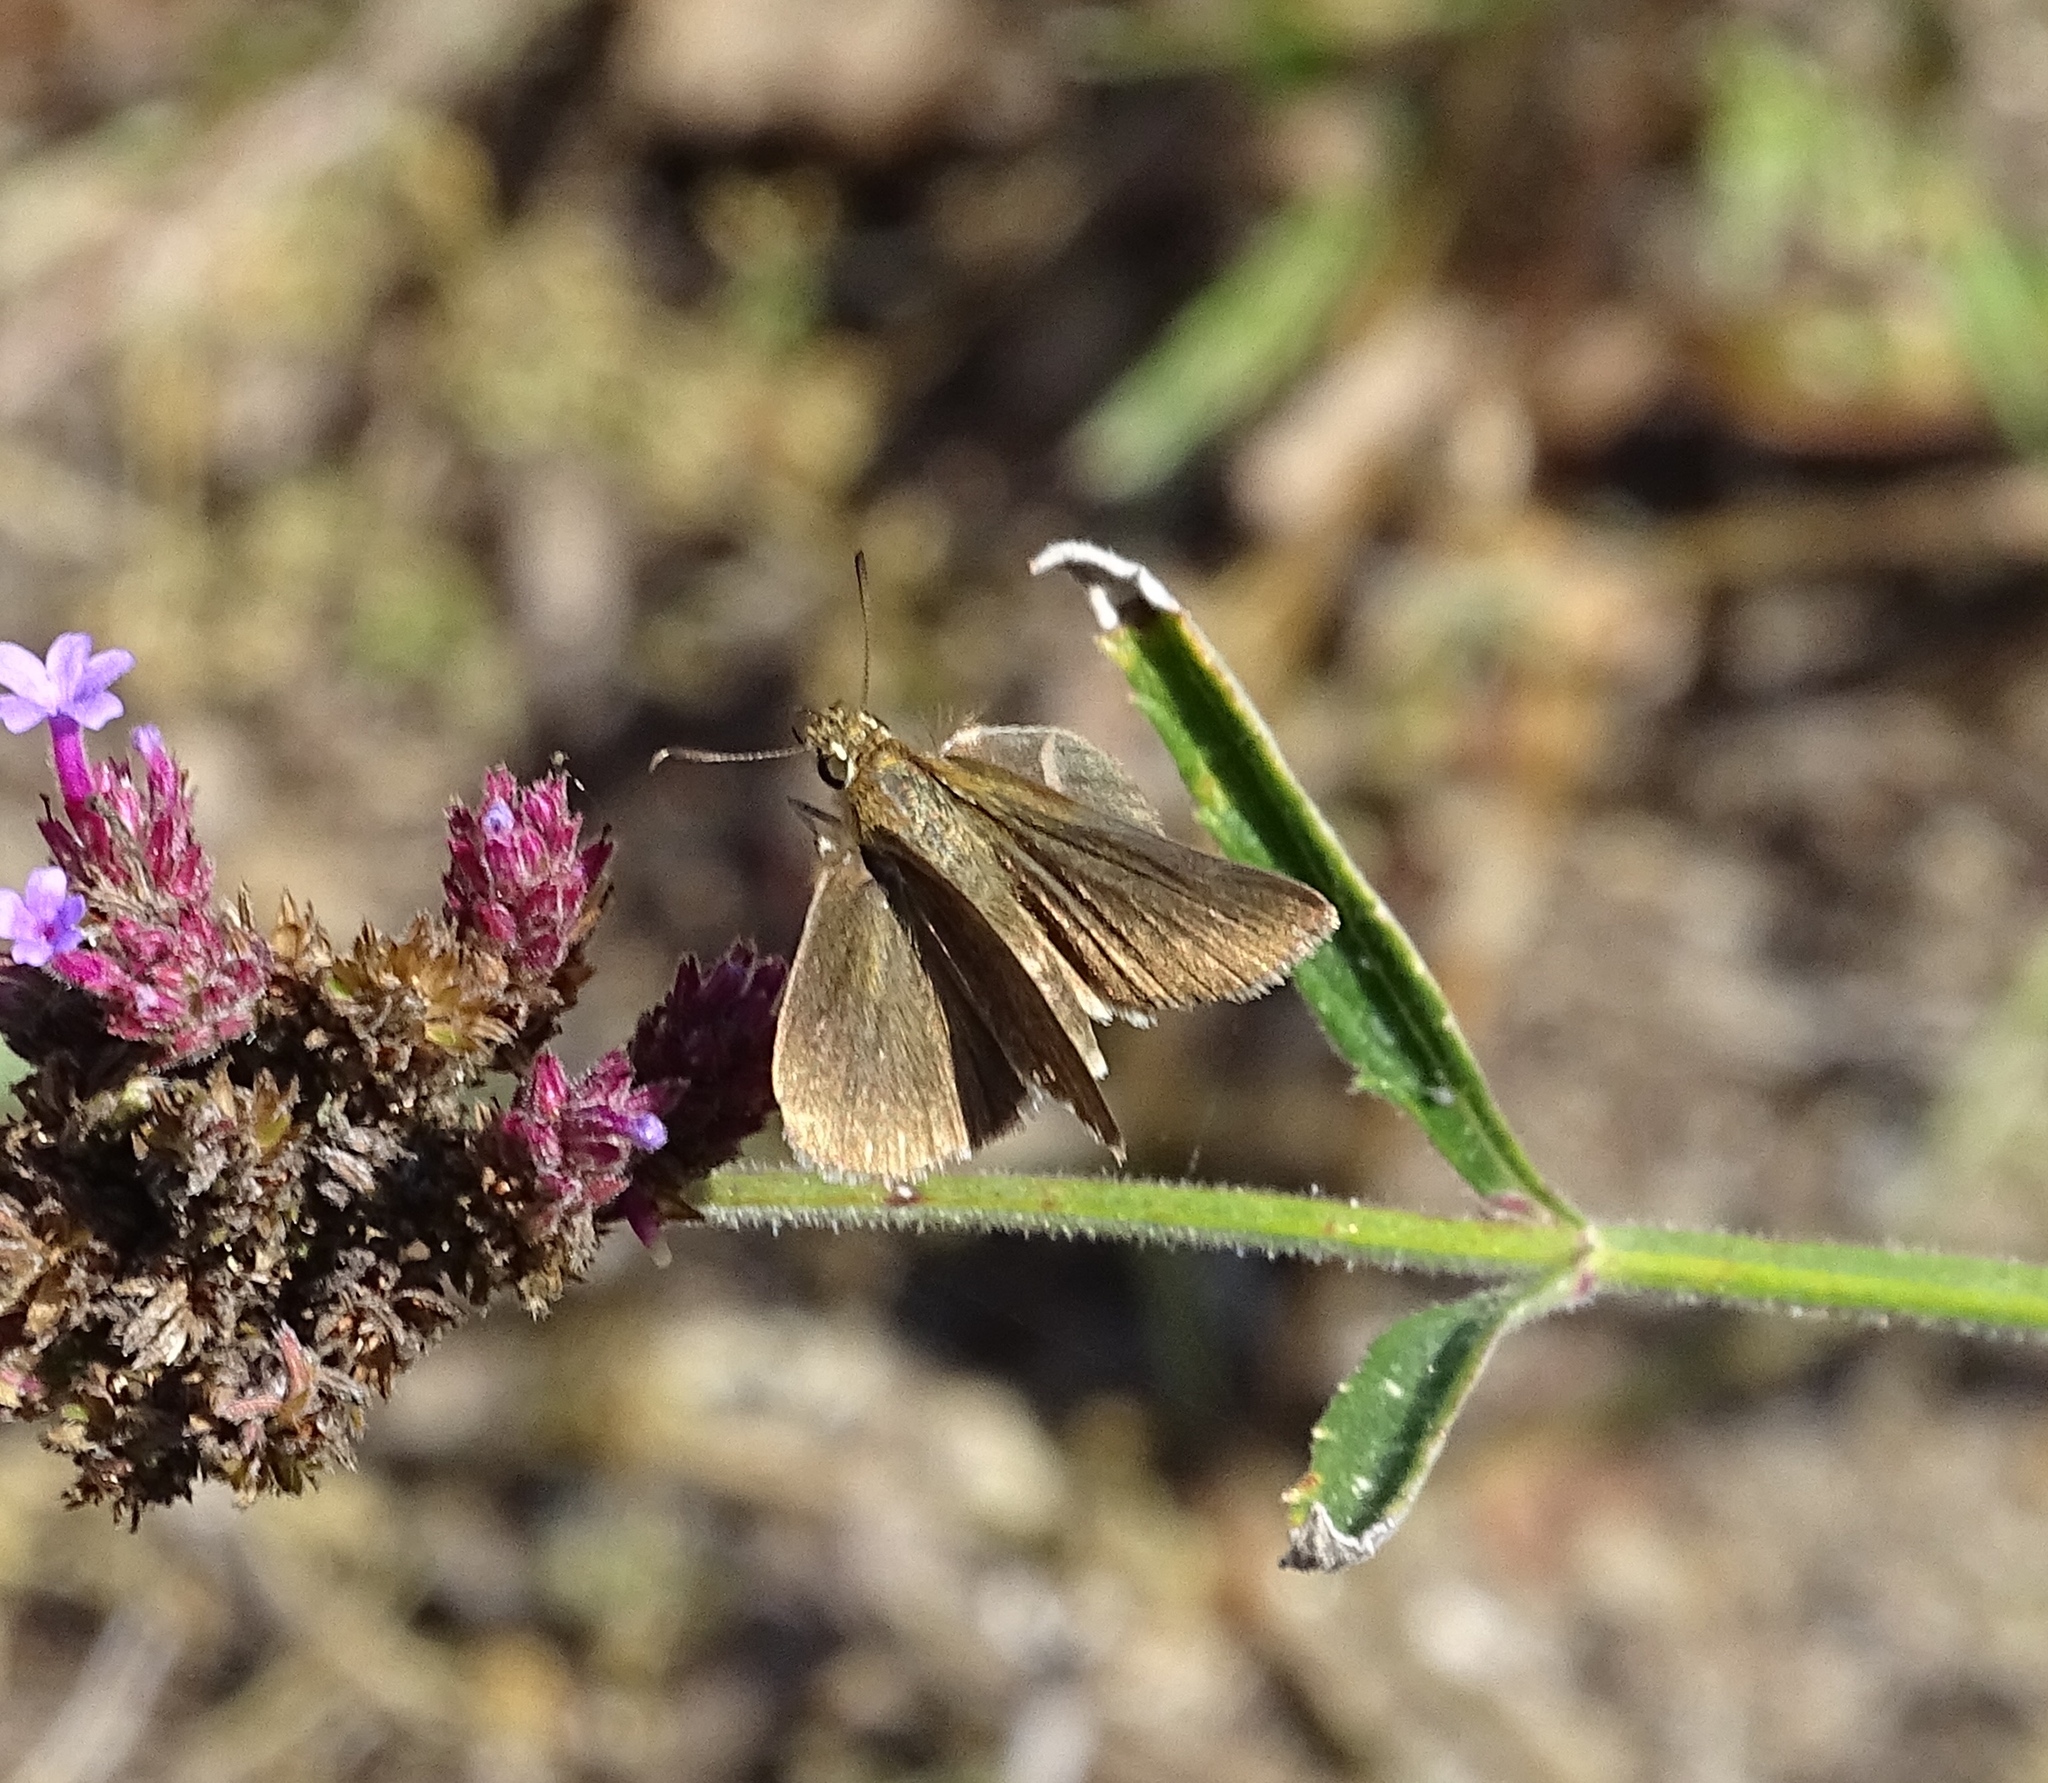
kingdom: Animalia
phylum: Arthropoda
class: Insecta
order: Lepidoptera
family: Hesperiidae
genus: Euphyes
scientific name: Euphyes vestris
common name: Dun skipper
